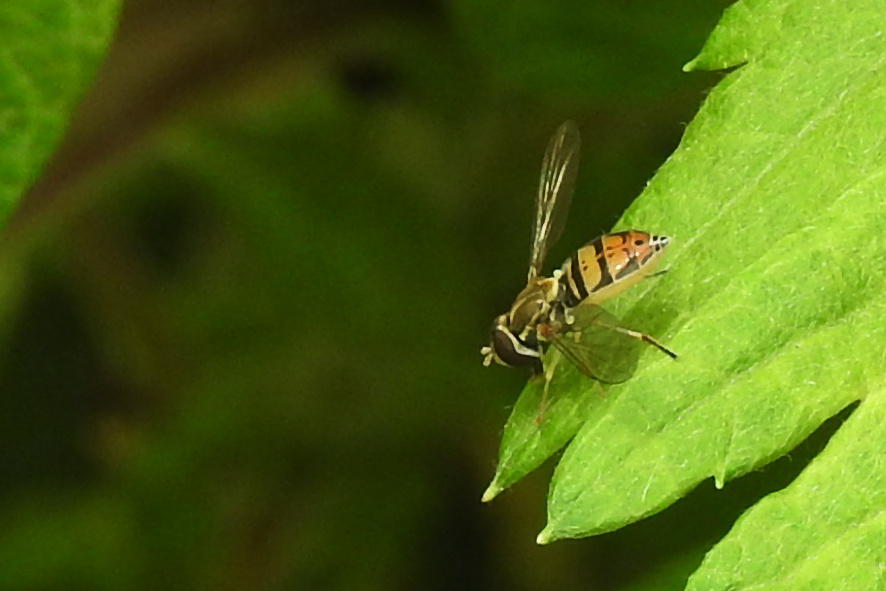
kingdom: Animalia
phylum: Arthropoda
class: Insecta
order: Diptera
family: Syrphidae
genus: Toxomerus
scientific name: Toxomerus marginatus
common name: Syrphid fly
